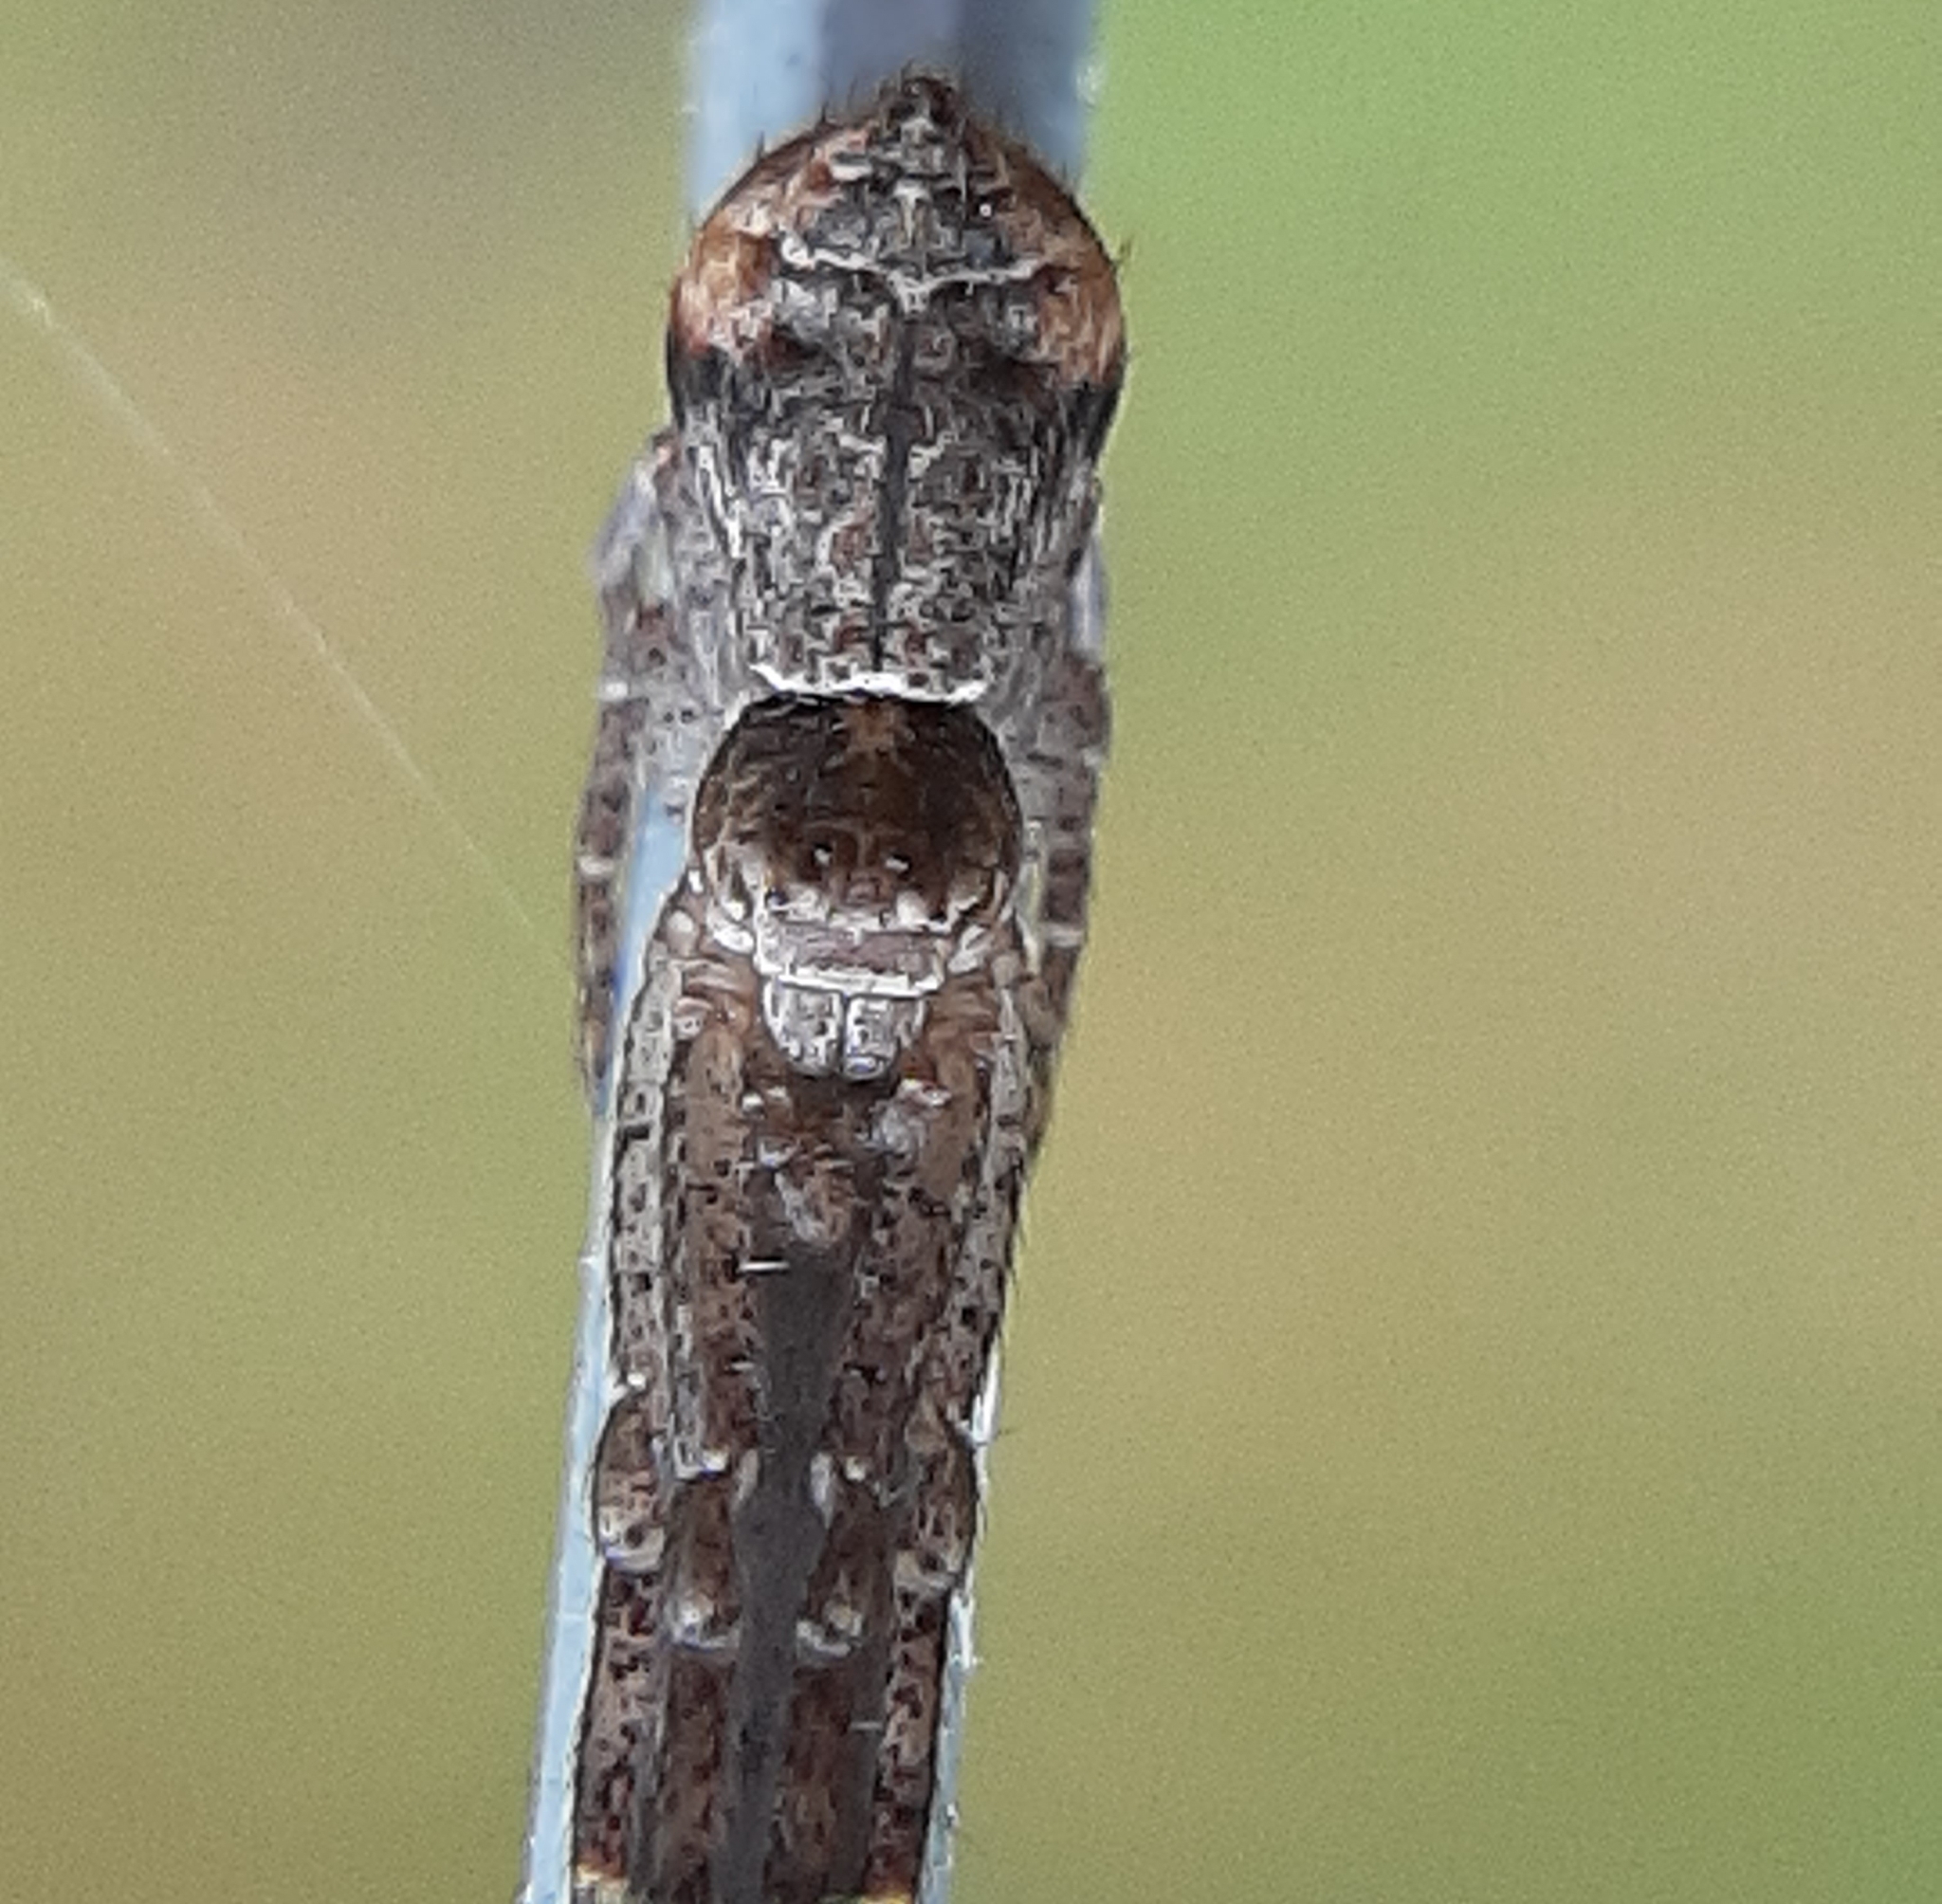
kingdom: Animalia
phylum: Arthropoda
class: Arachnida
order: Araneae
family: Thomisidae
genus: Tmarus
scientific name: Tmarus angulatus
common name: Tuberculated crab spider
